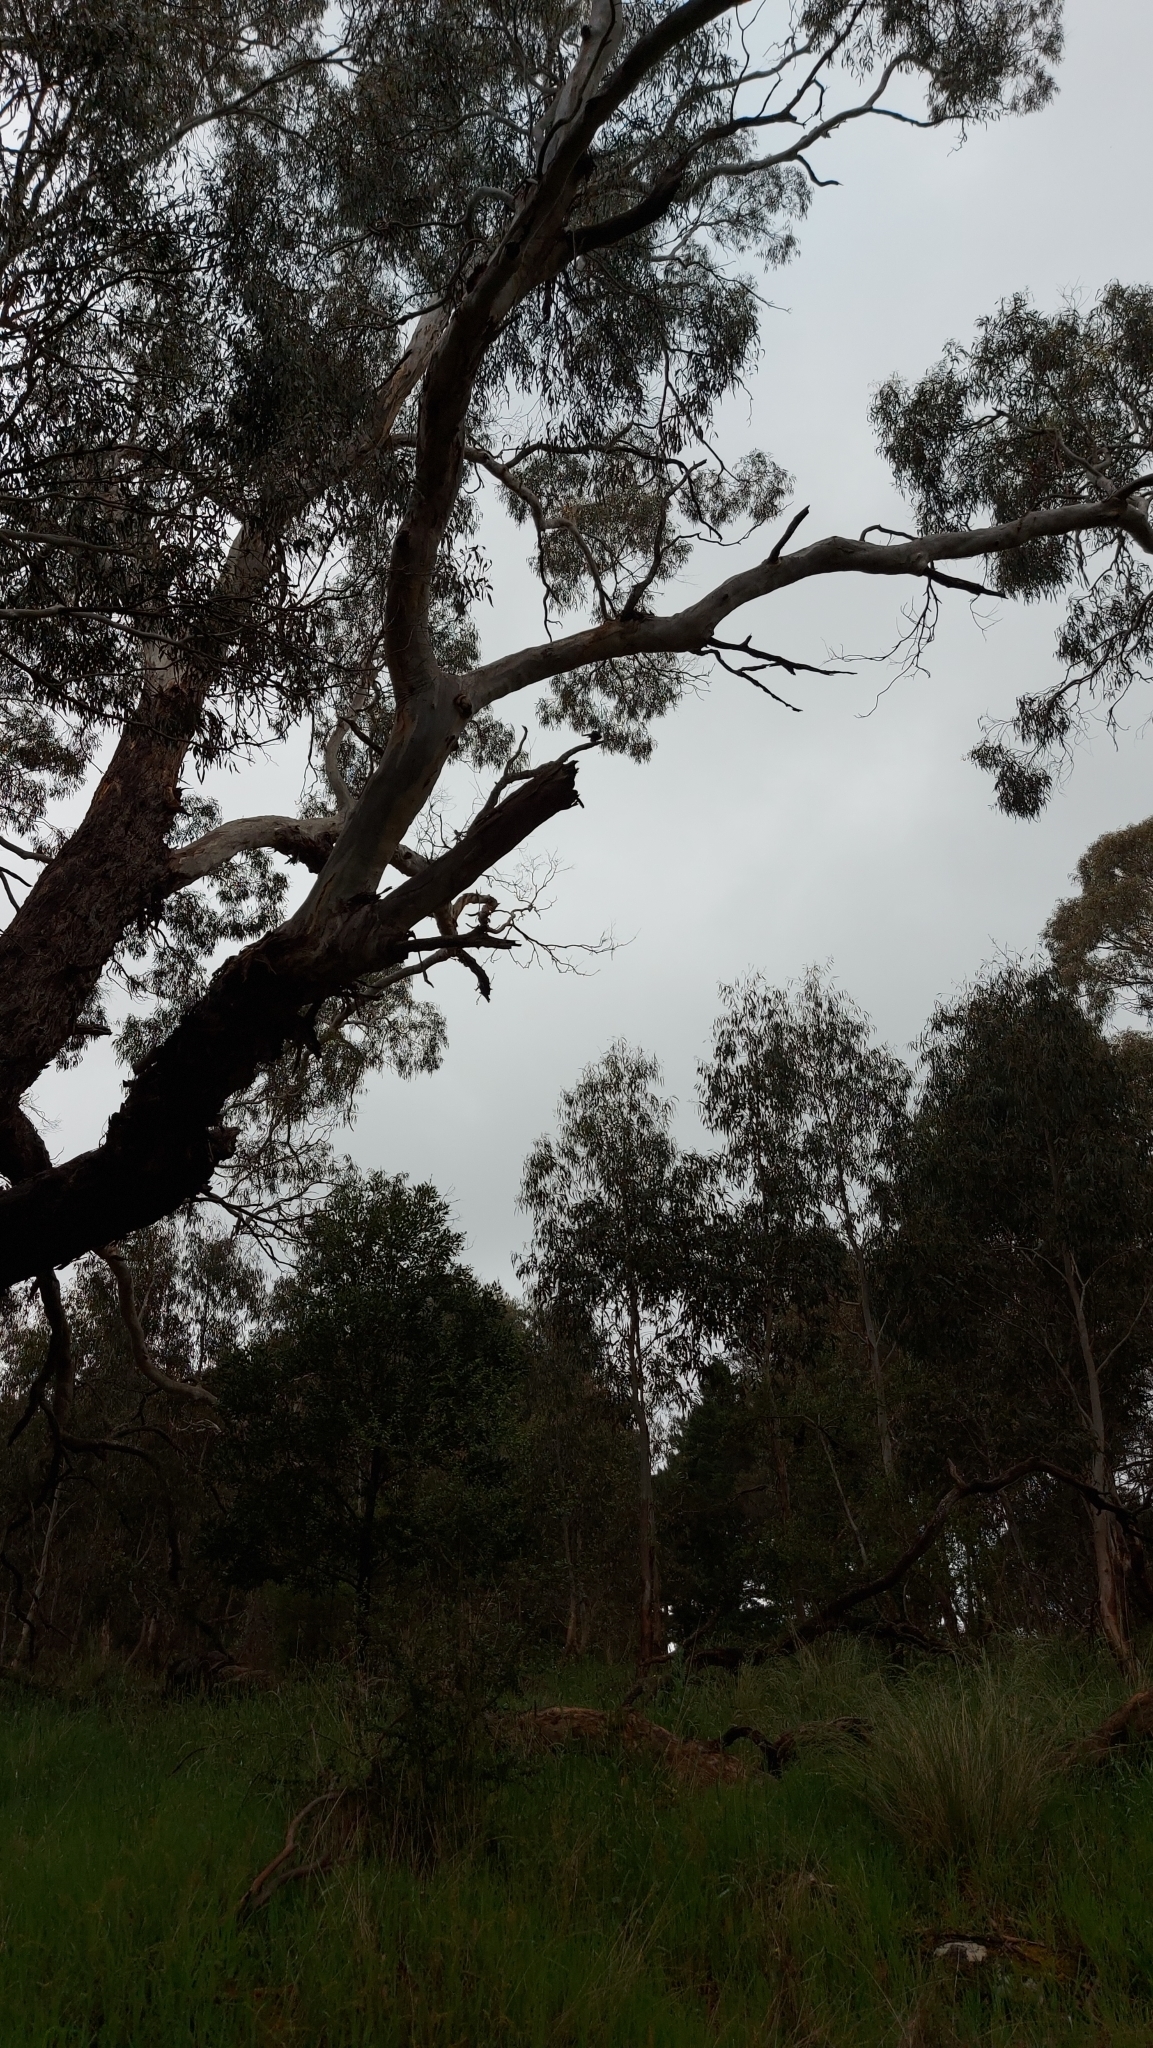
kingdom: Animalia
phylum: Chordata
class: Aves
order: Passeriformes
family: Corvidae
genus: Corvus
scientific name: Corvus mellori
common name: Little raven
